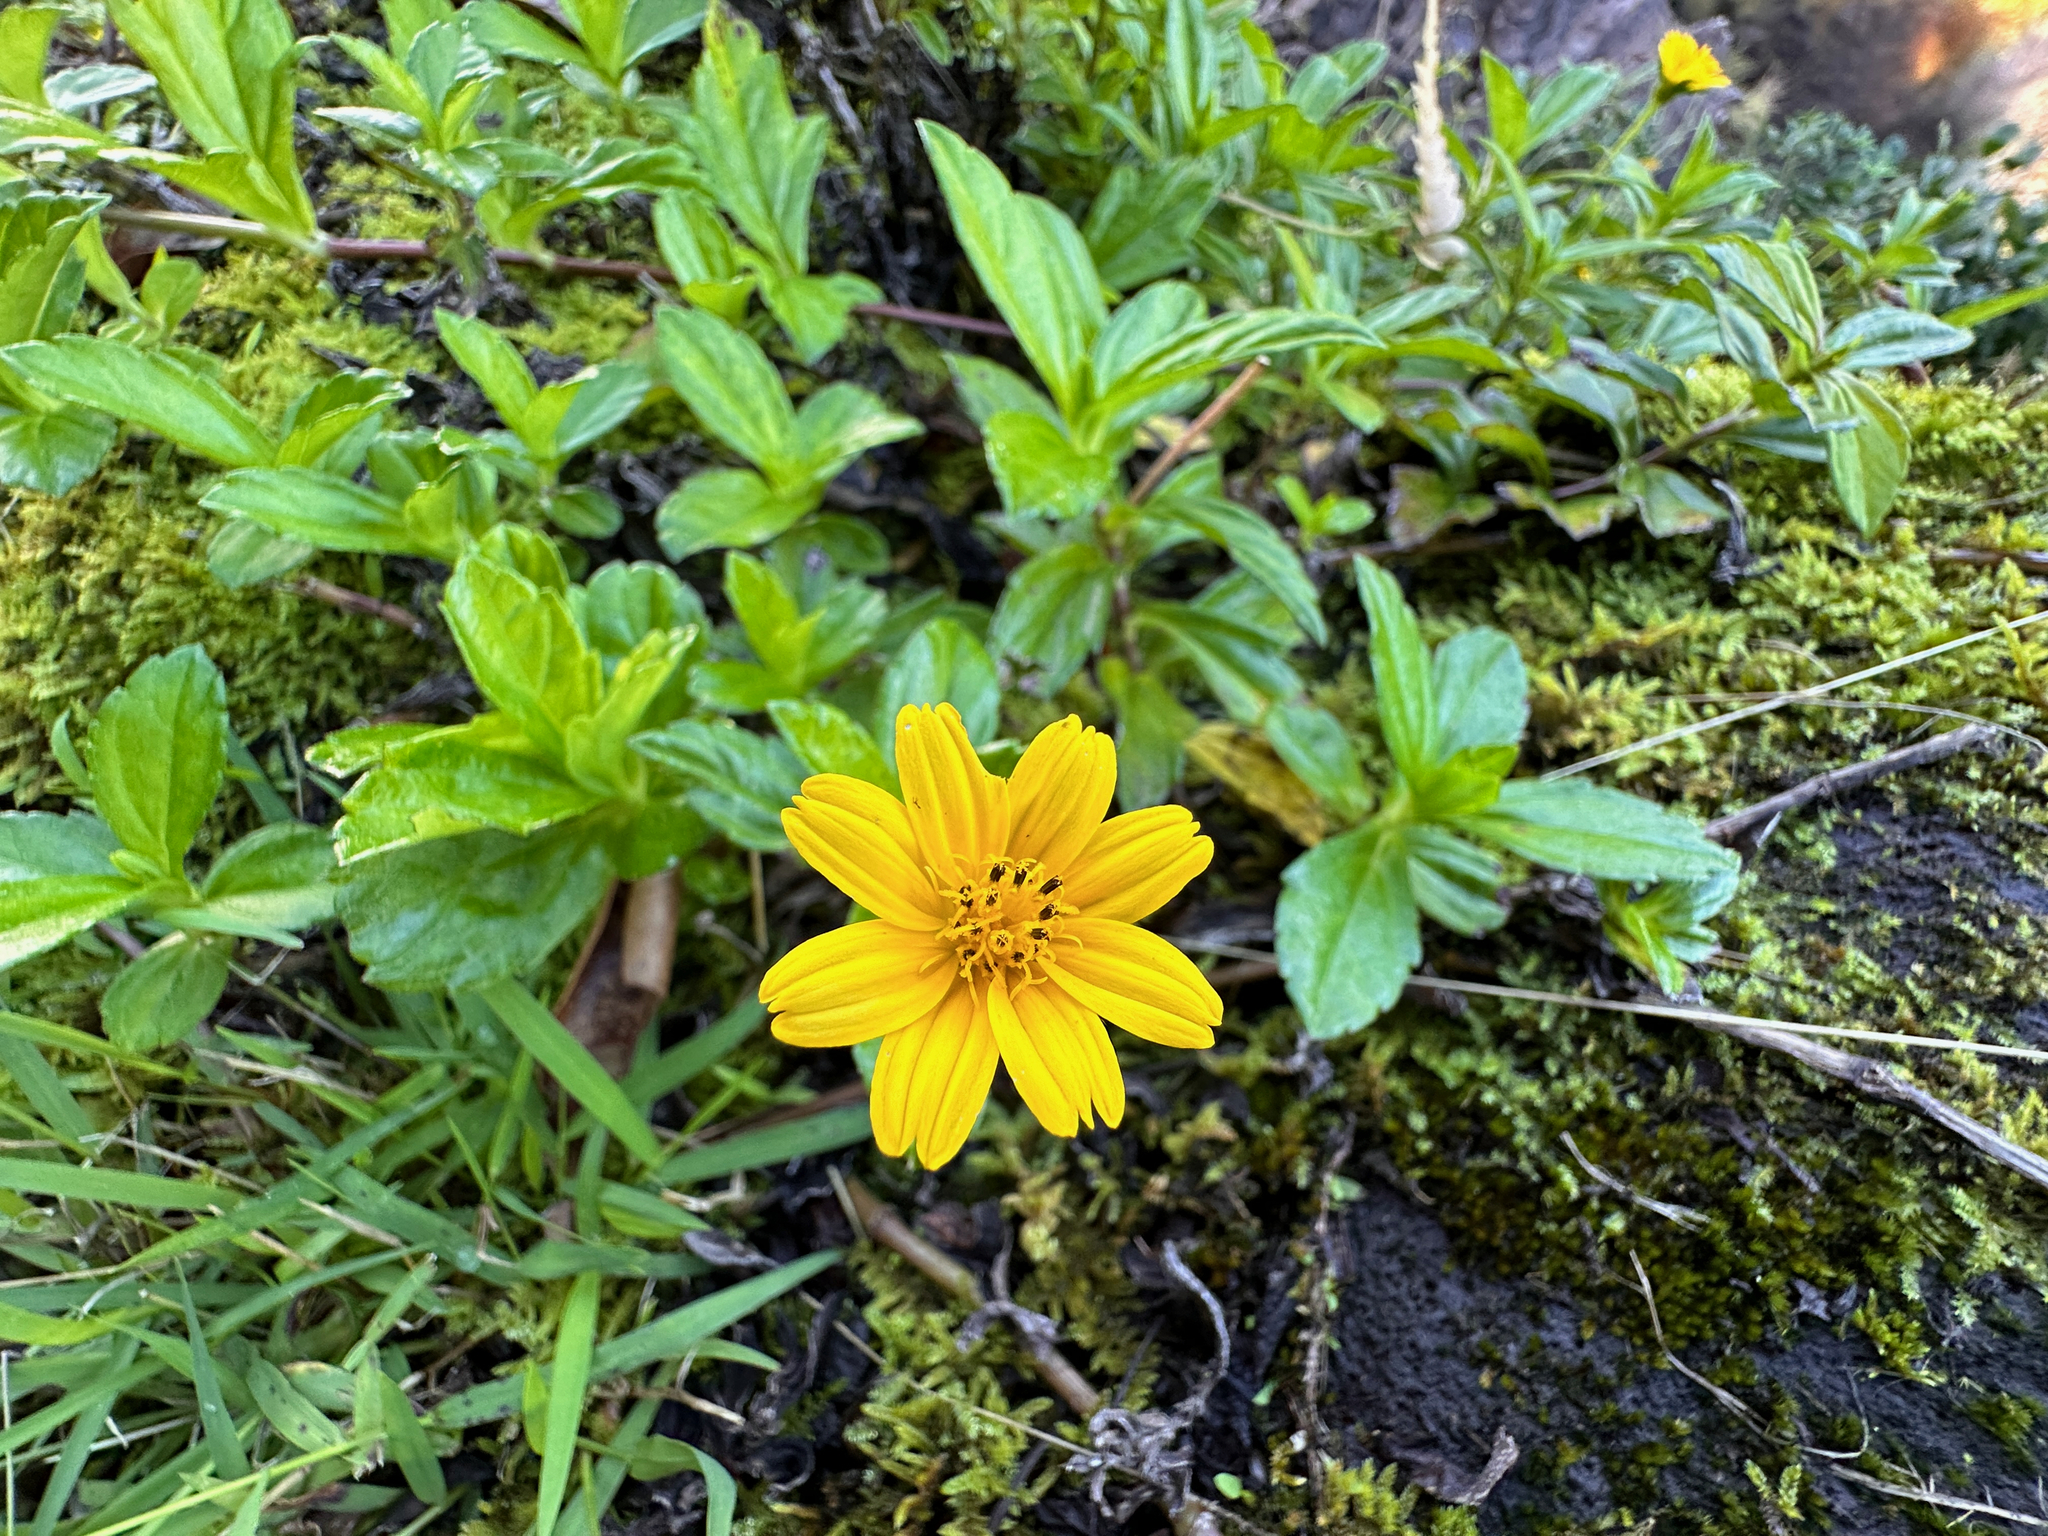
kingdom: Plantae
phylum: Tracheophyta
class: Magnoliopsida
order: Asterales
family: Asteraceae
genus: Sphagneticola
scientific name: Sphagneticola trilobata
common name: Bay biscayne creeping-oxeye
